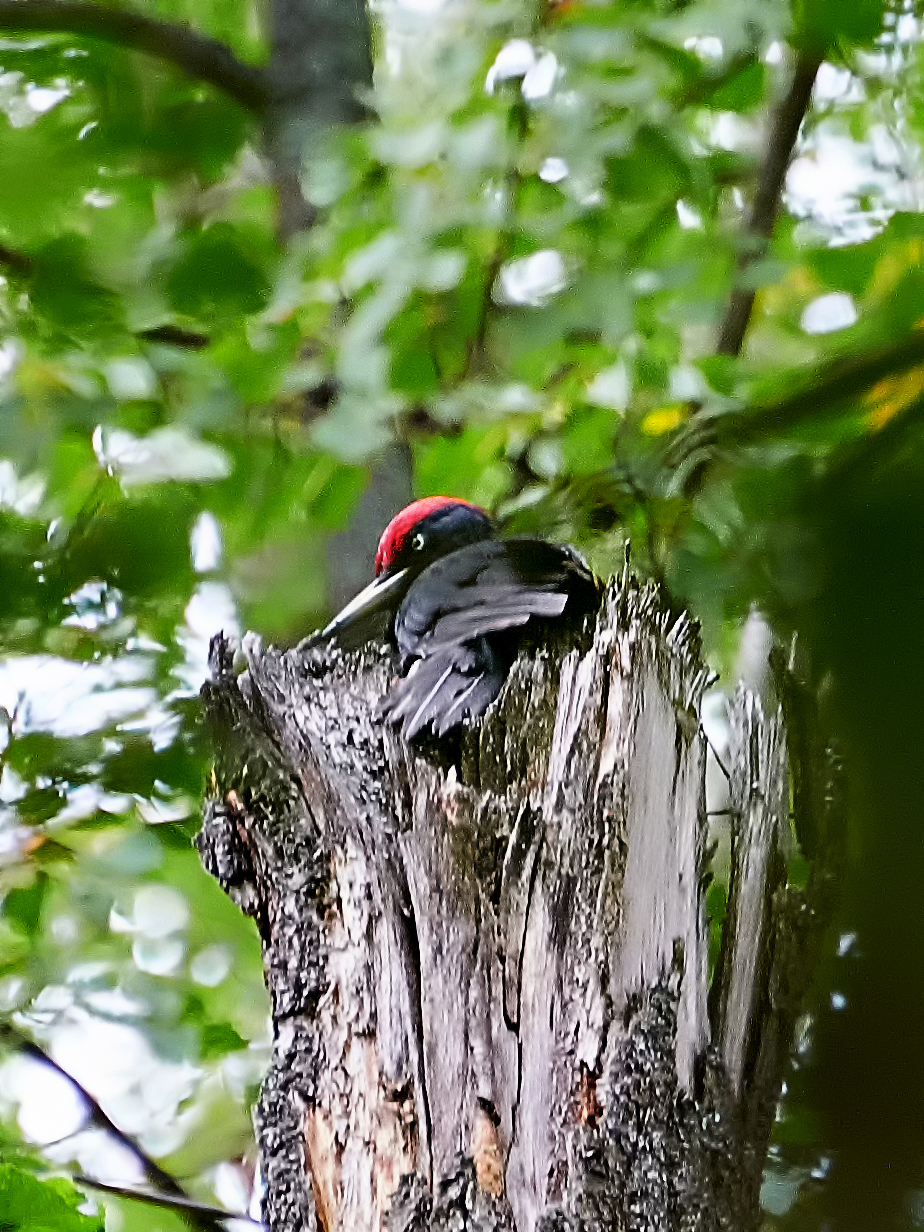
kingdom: Animalia
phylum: Chordata
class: Aves
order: Piciformes
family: Picidae
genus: Dryocopus
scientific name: Dryocopus martius
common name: Black woodpecker
